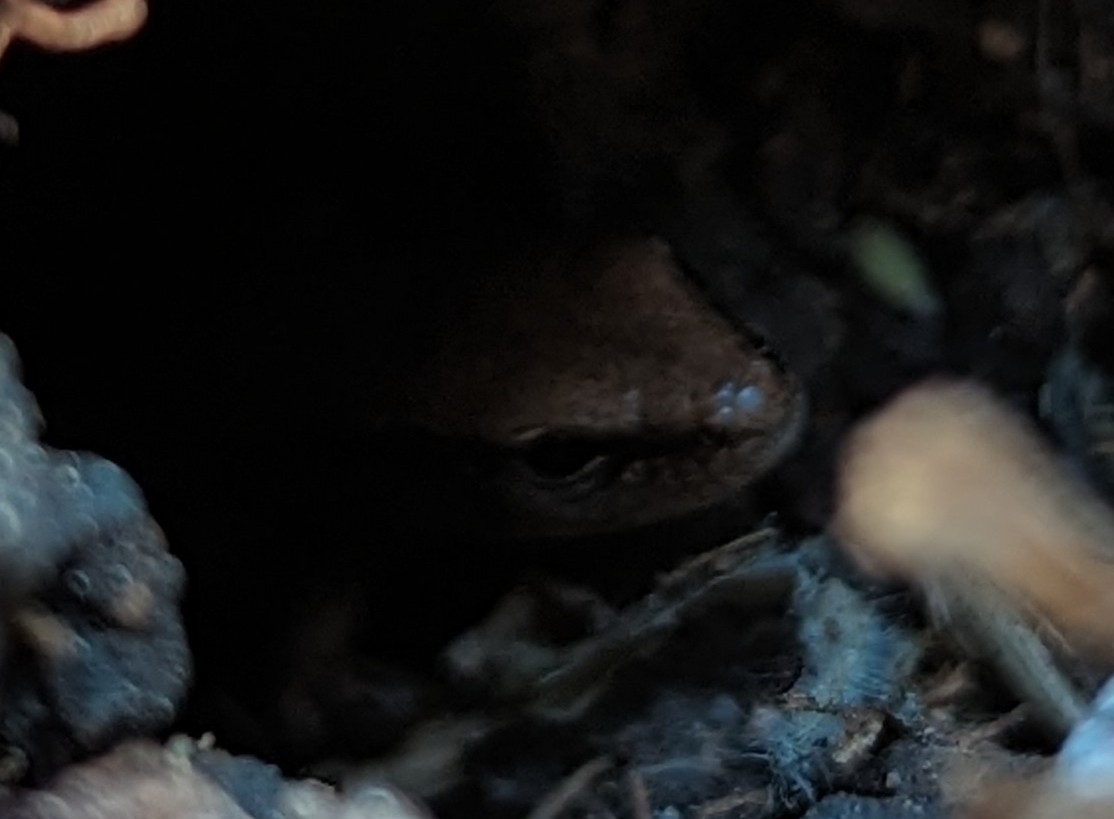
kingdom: Animalia
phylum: Chordata
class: Squamata
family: Scincidae
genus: Scincella
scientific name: Scincella lateralis
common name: Ground skink
